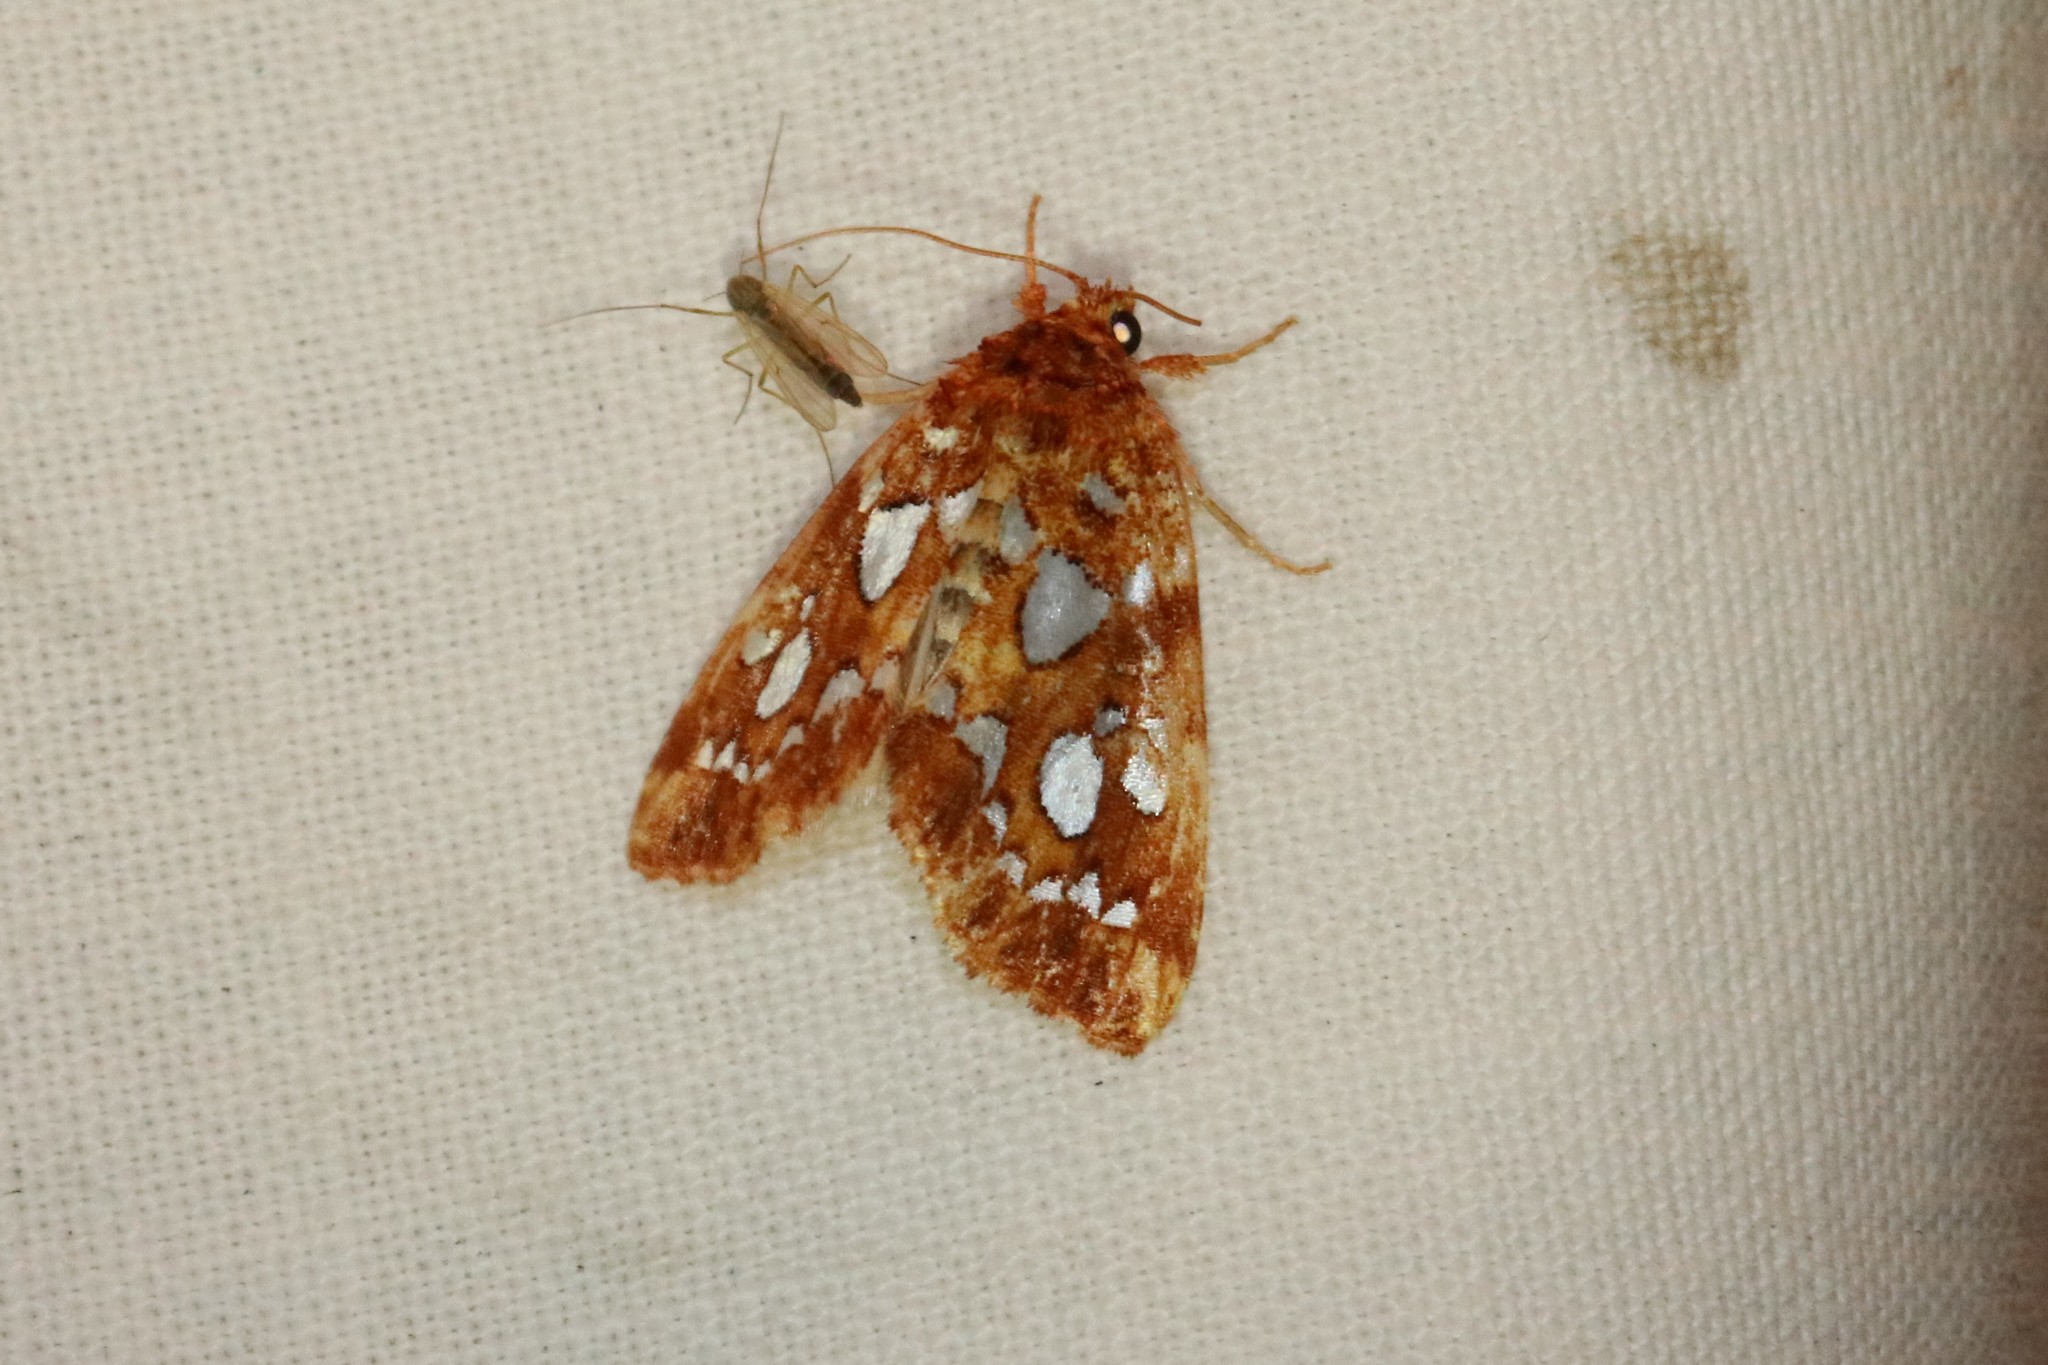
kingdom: Animalia
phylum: Arthropoda
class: Insecta
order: Lepidoptera
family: Noctuidae
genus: Callopistria
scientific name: Callopistria cordata
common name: Silver-spotted fern moth
